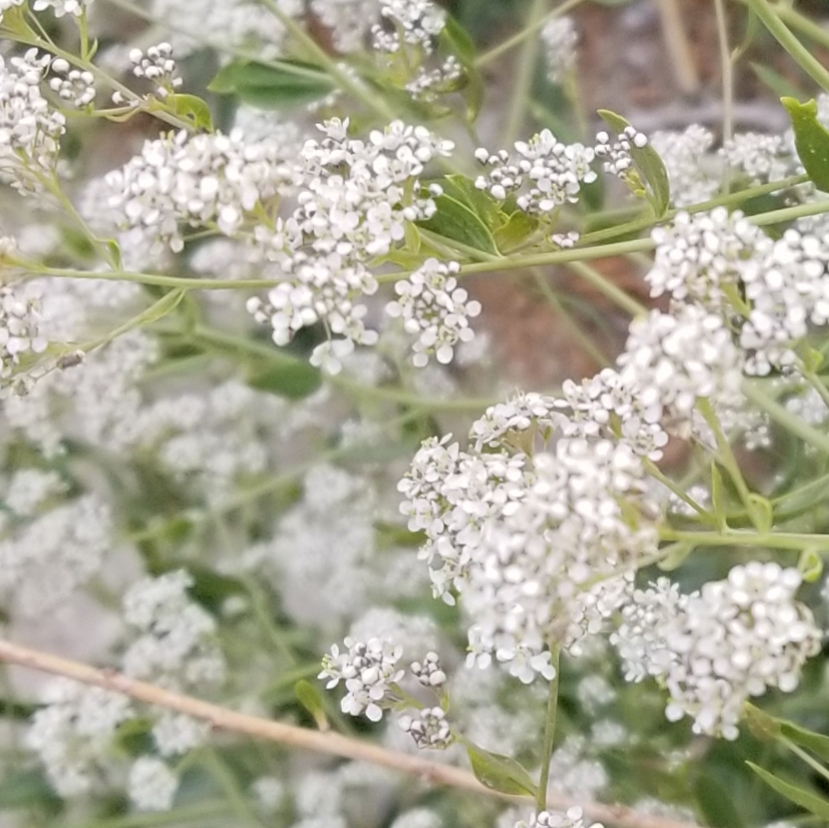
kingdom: Plantae
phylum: Tracheophyta
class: Magnoliopsida
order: Brassicales
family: Brassicaceae
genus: Lepidium
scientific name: Lepidium latifolium
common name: Dittander
